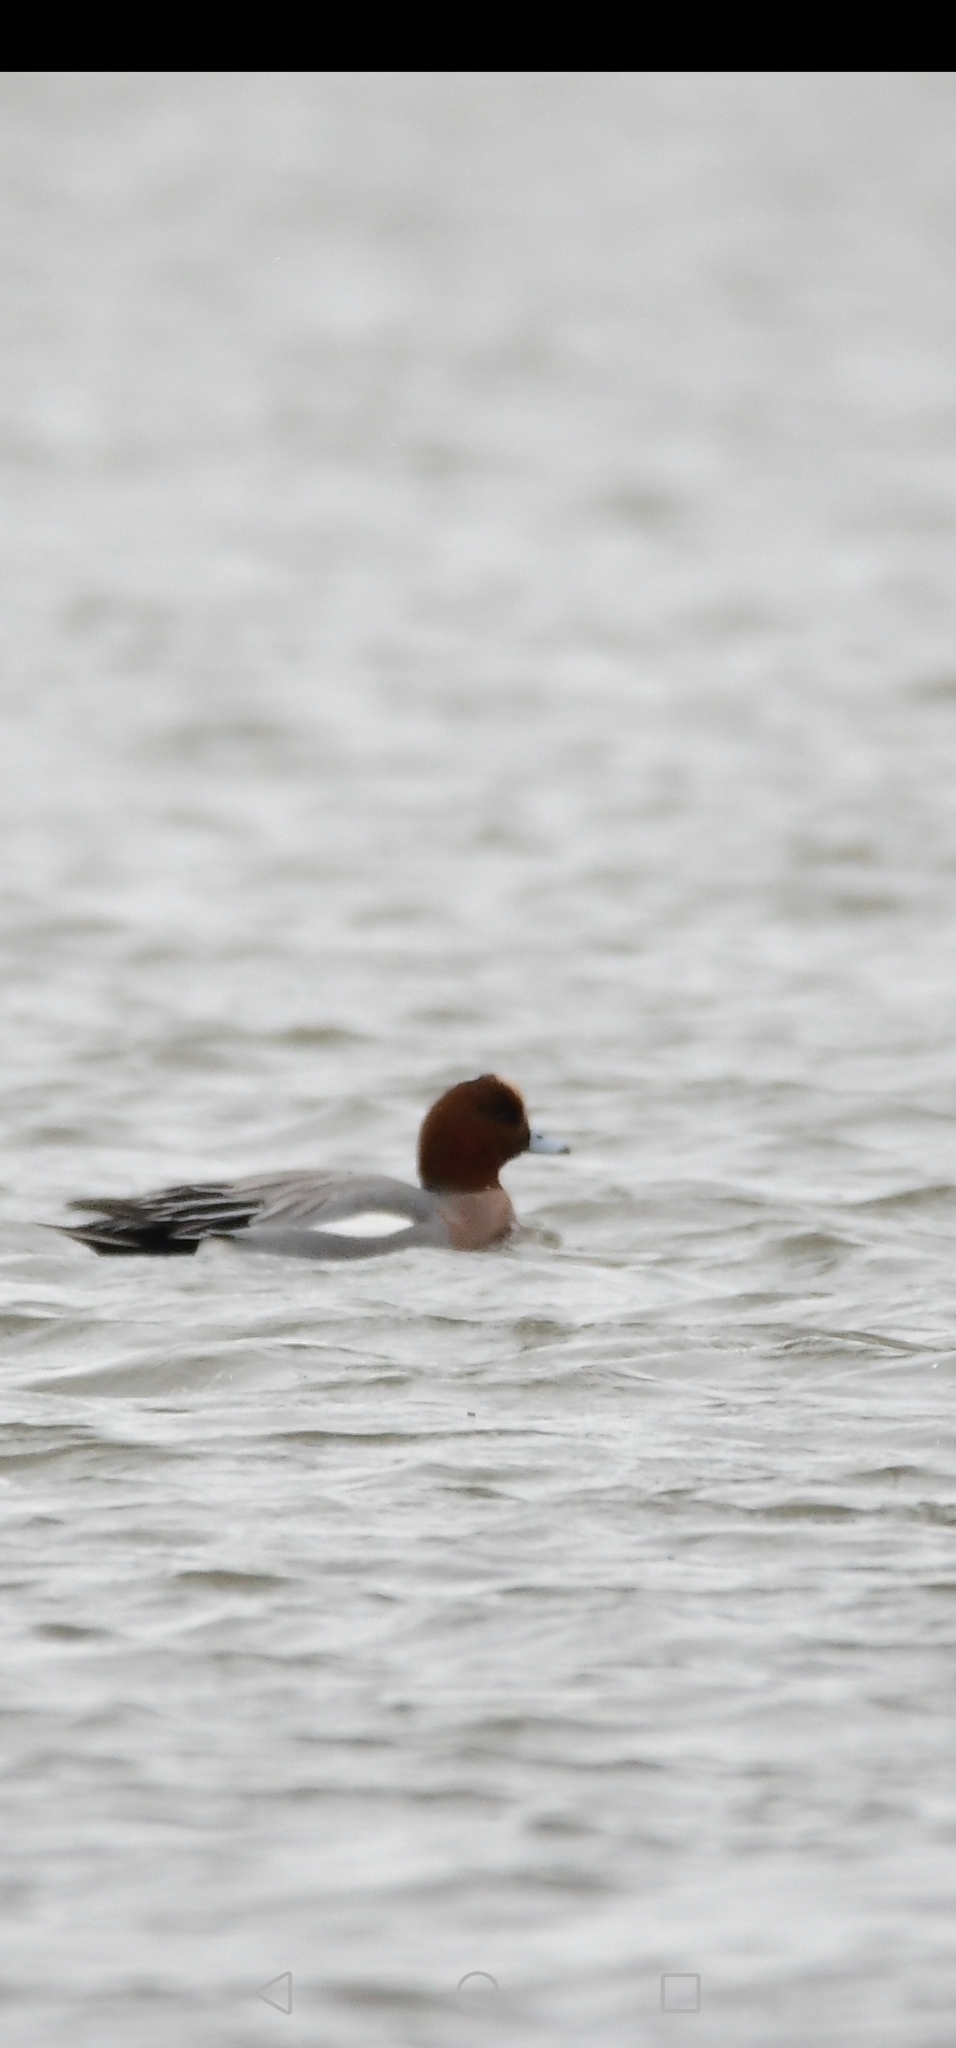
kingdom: Animalia
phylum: Chordata
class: Aves
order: Anseriformes
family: Anatidae
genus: Mareca
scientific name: Mareca penelope
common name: Eurasian wigeon
